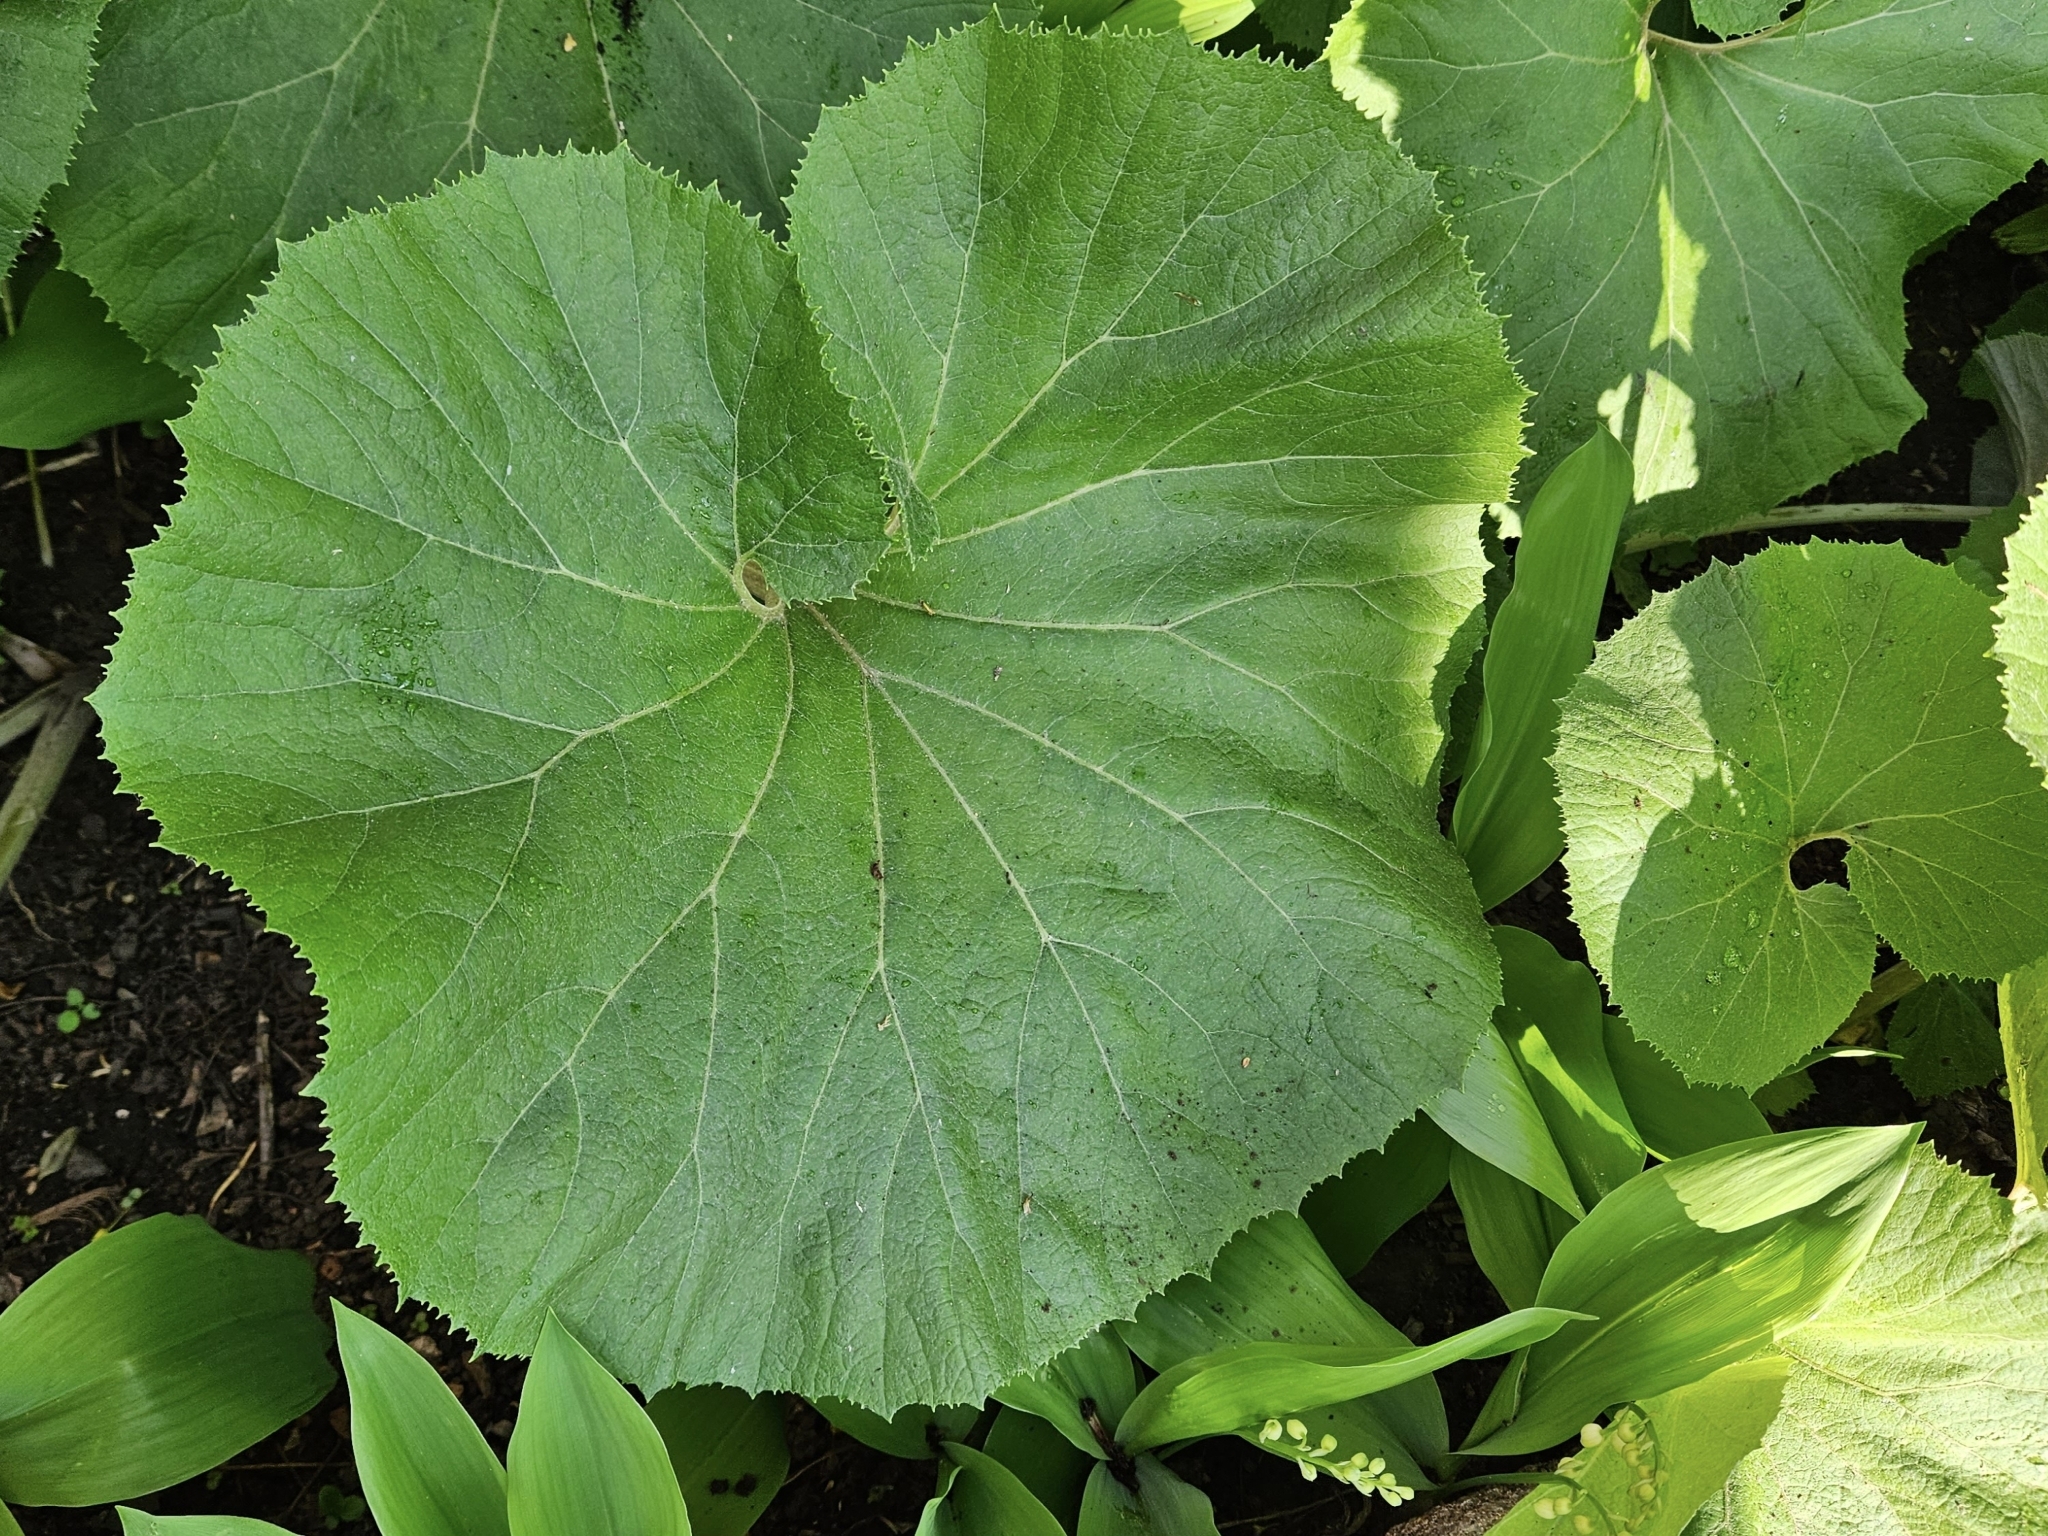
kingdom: Plantae
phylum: Tracheophyta
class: Magnoliopsida
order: Asterales
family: Asteraceae
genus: Petasites
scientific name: Petasites japonicus
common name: Giant butterbur
